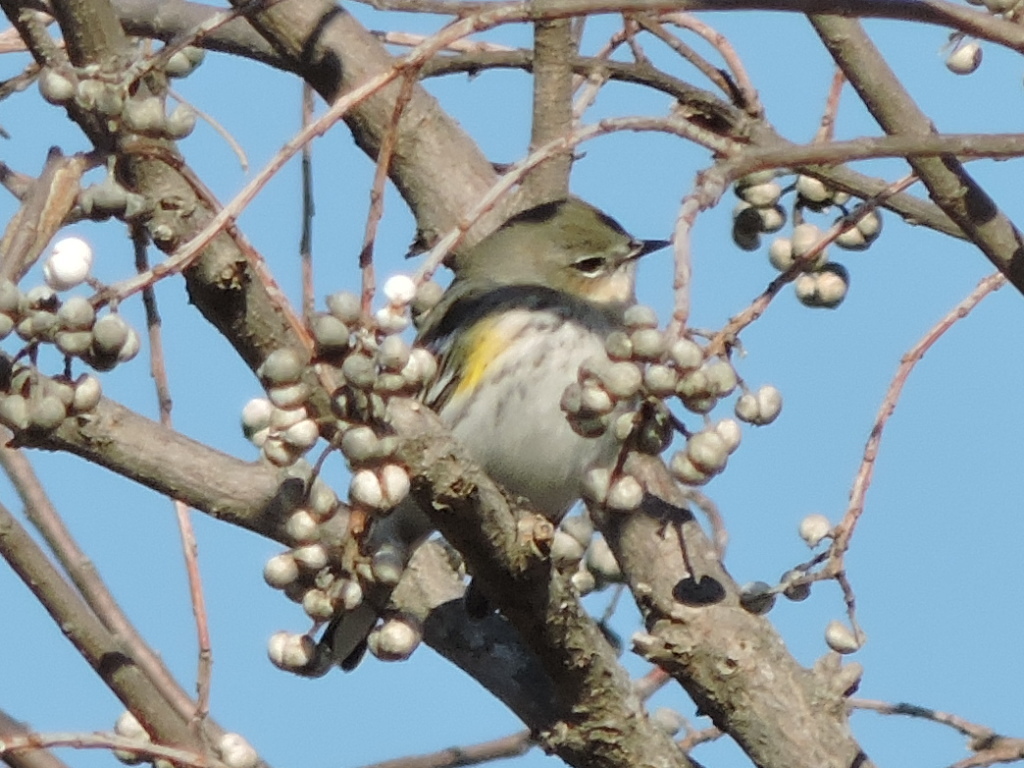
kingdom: Animalia
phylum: Chordata
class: Aves
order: Passeriformes
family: Parulidae
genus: Setophaga
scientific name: Setophaga coronata
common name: Myrtle warbler
